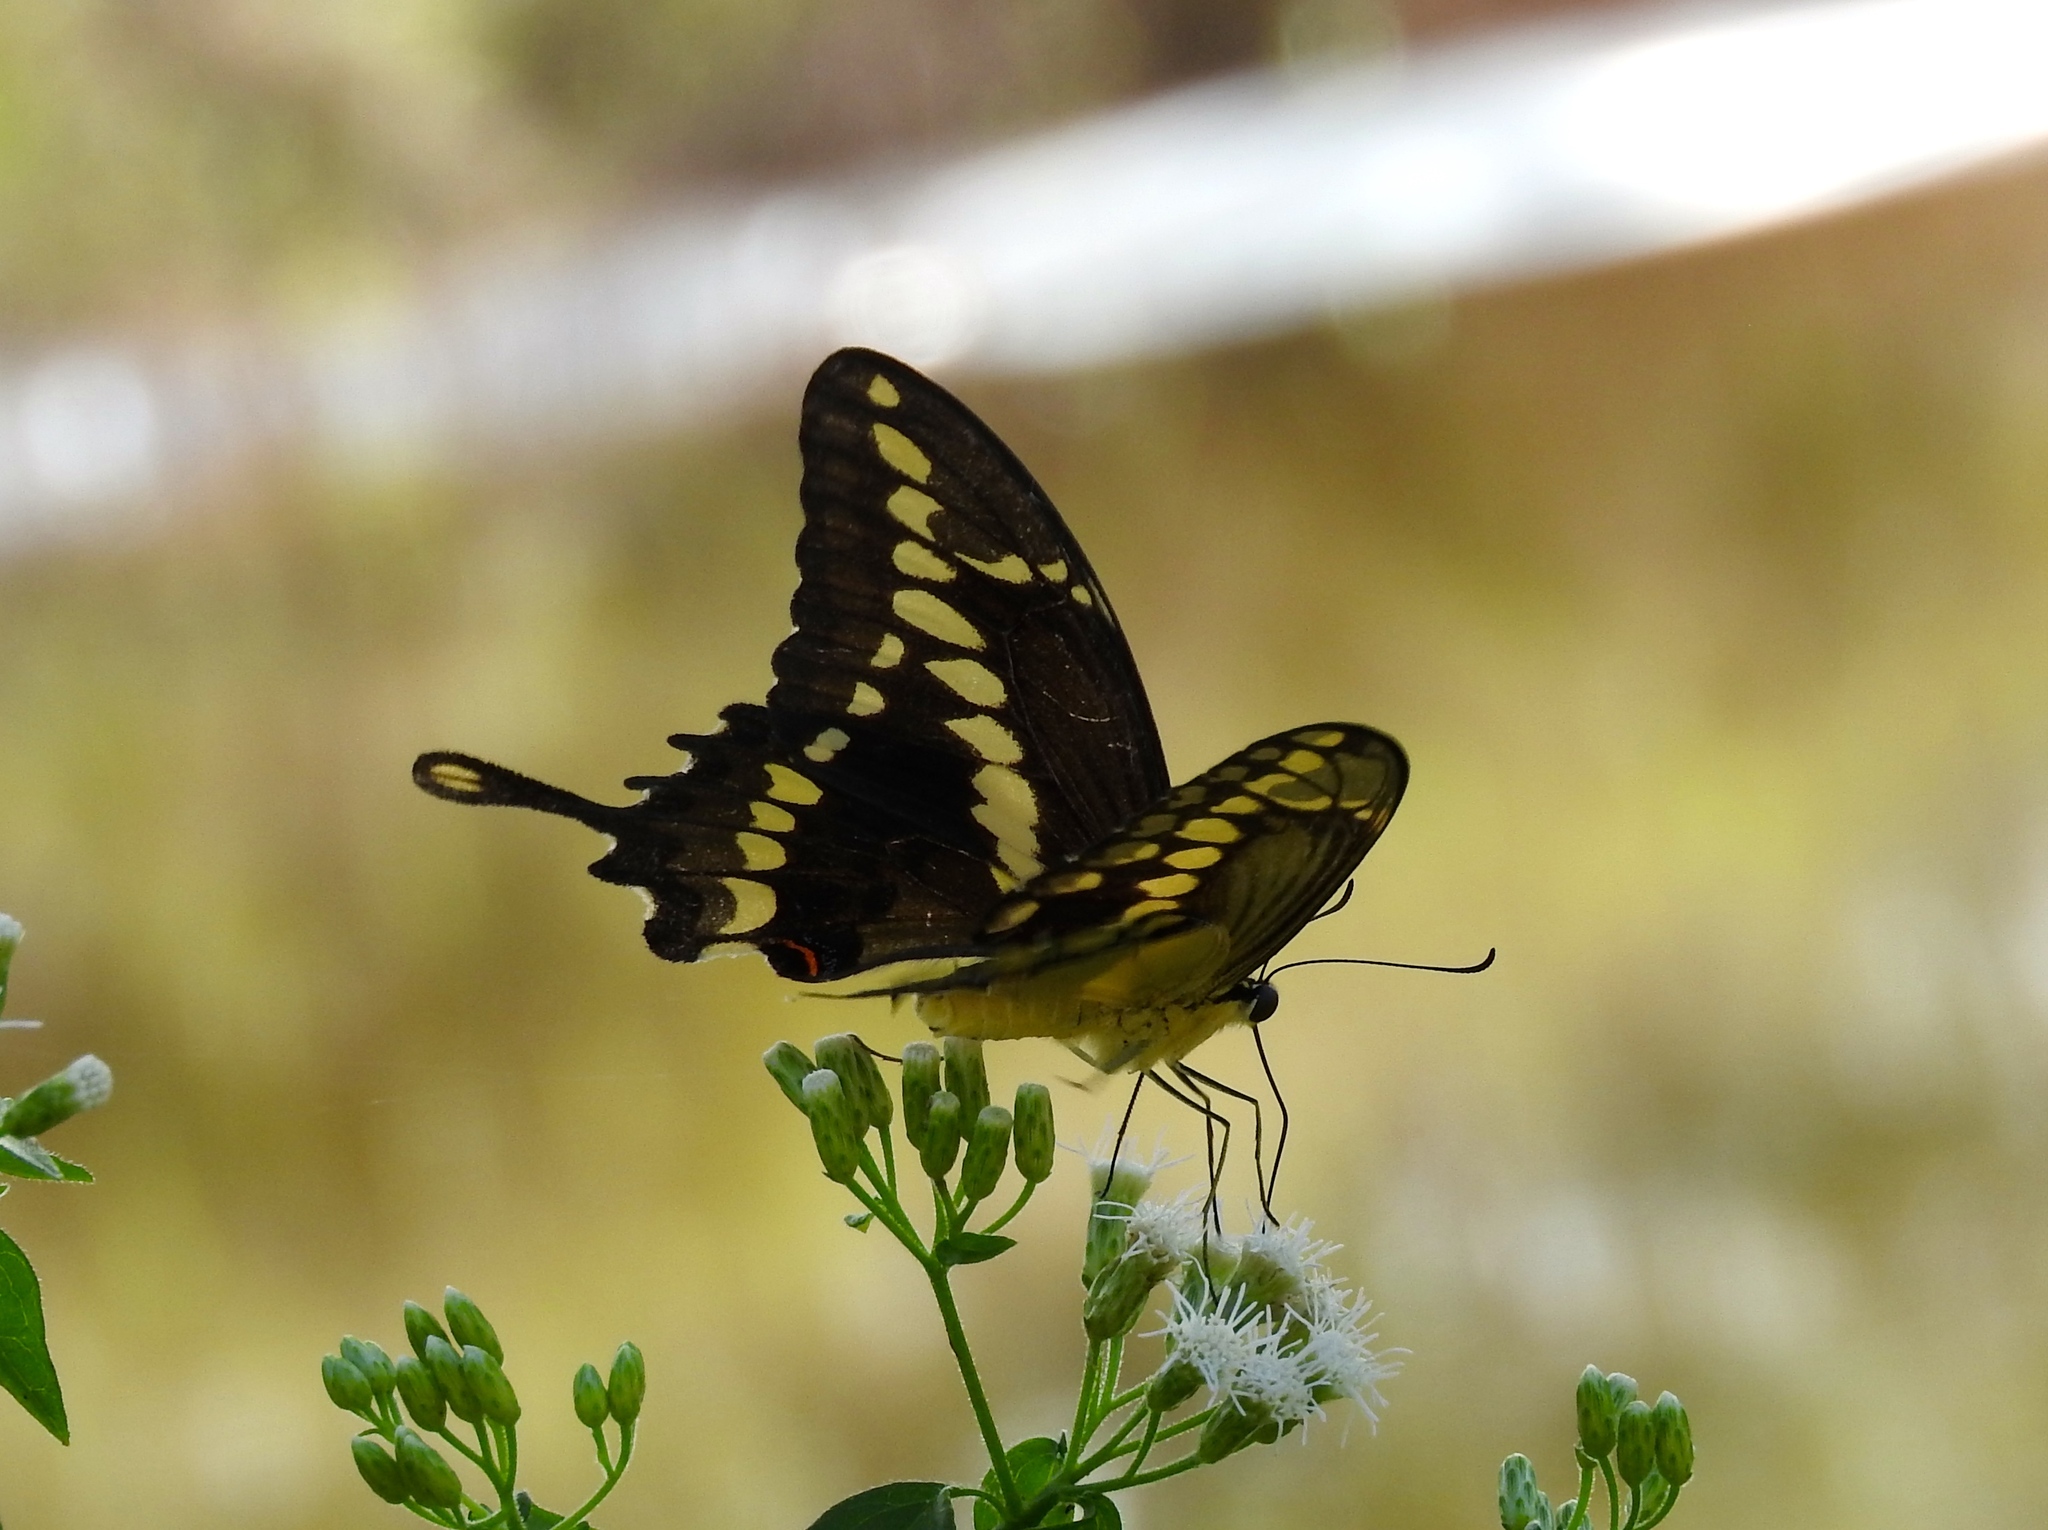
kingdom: Animalia
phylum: Arthropoda
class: Insecta
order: Lepidoptera
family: Papilionidae
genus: Papilio
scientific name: Papilio rumiko
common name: Western giant swallowtail
